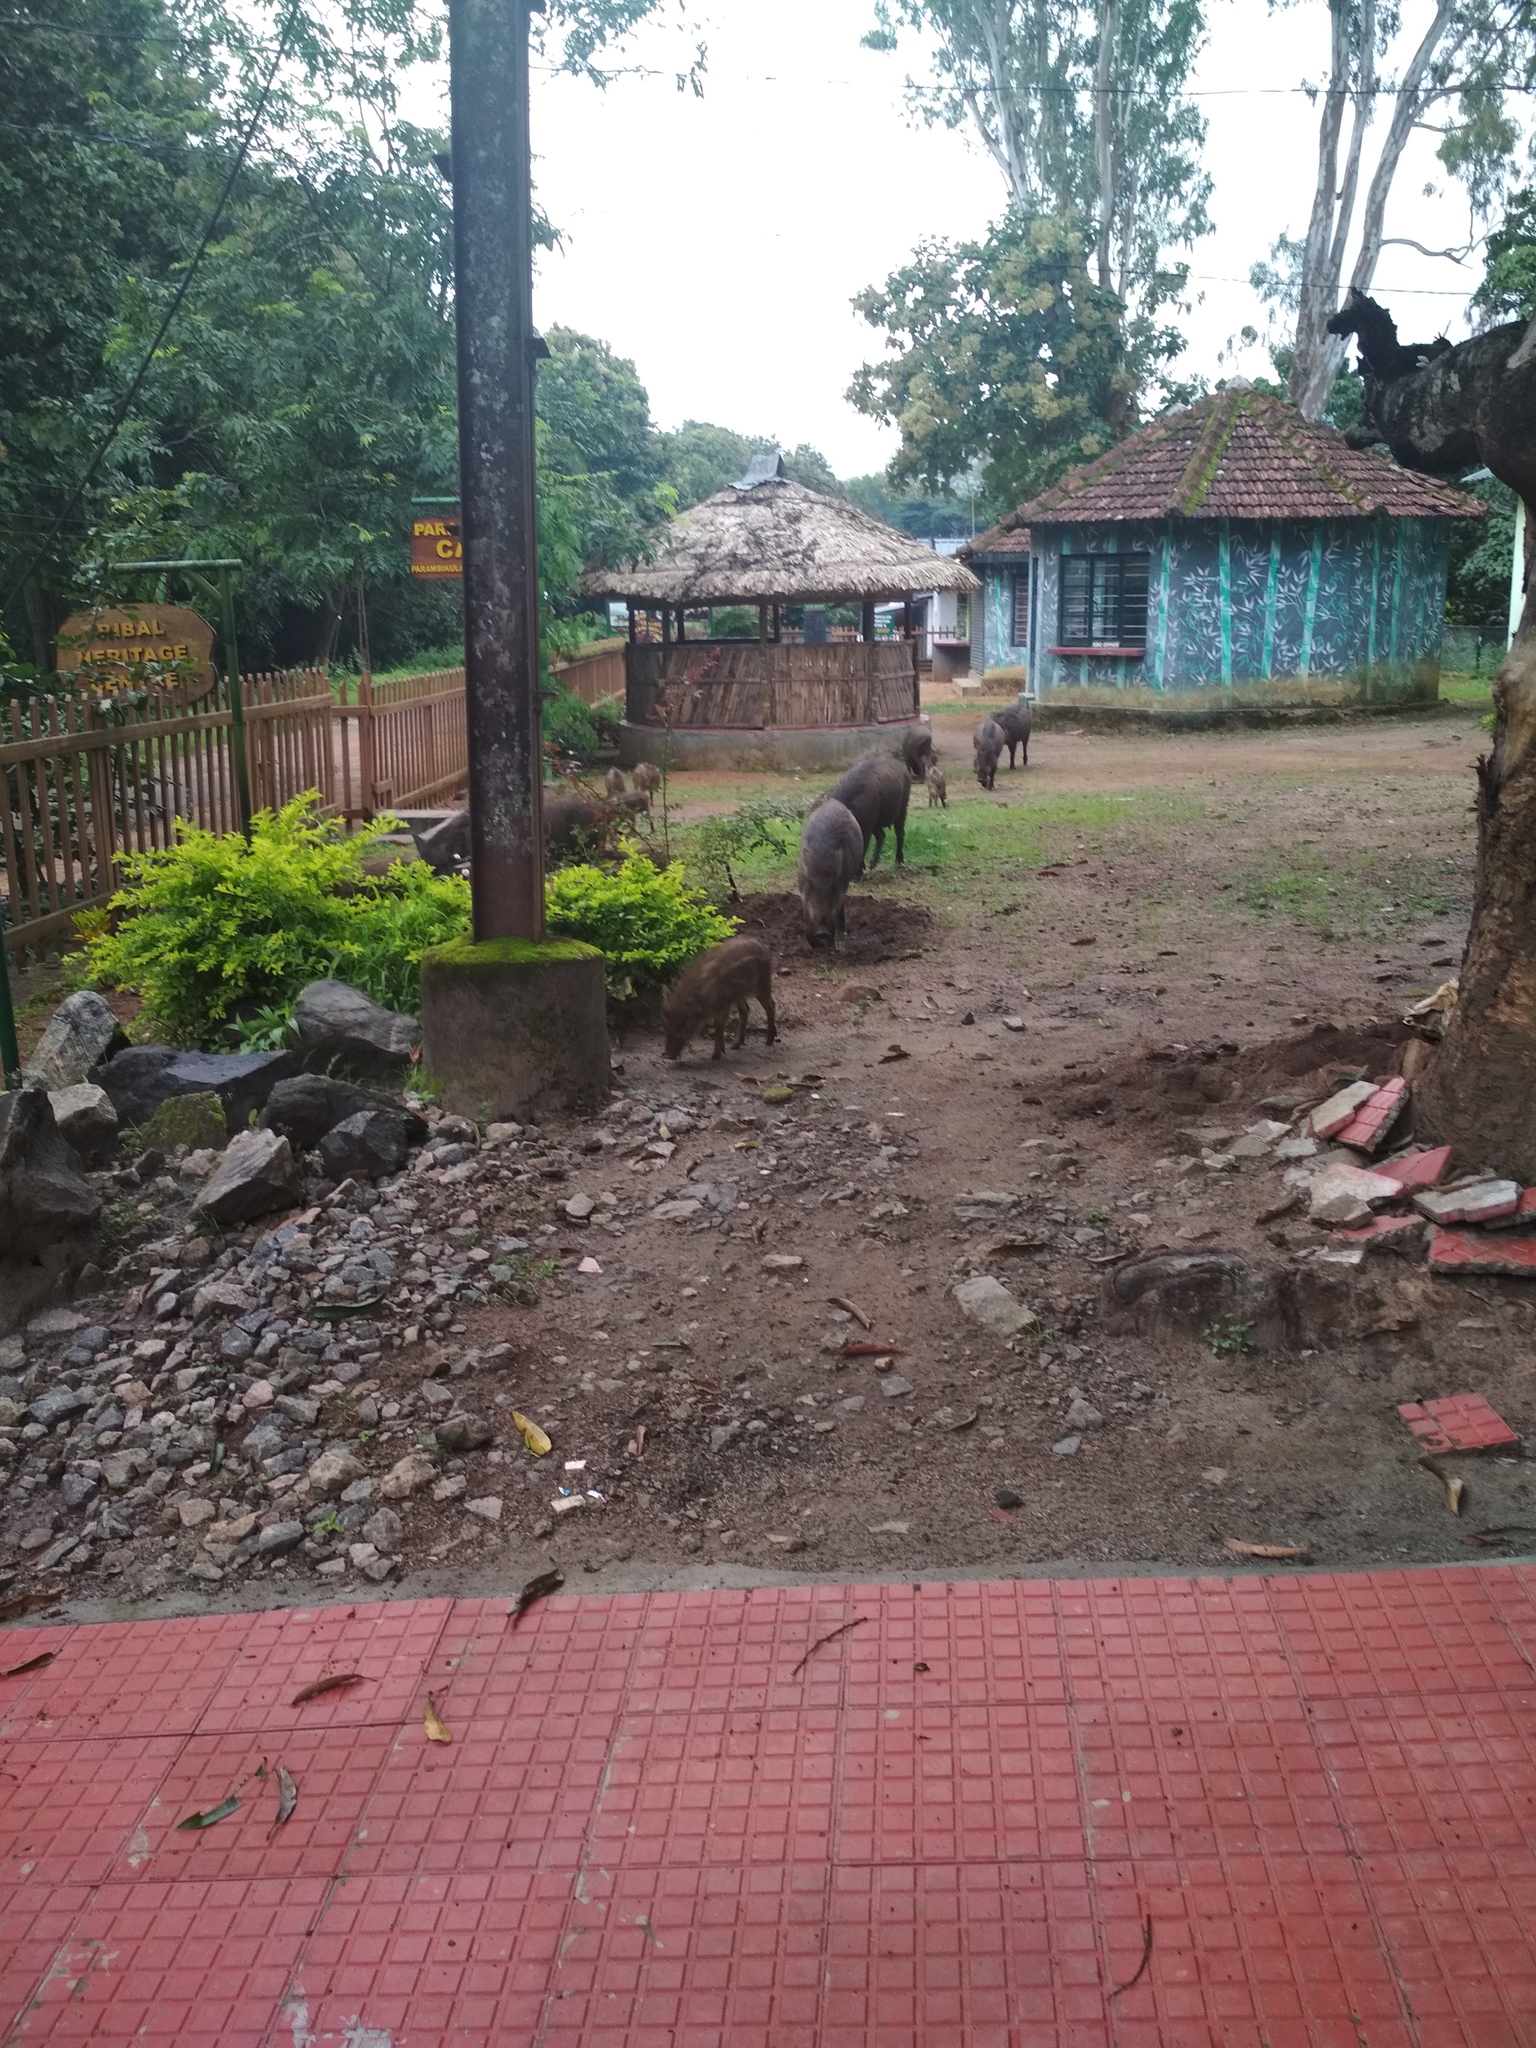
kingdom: Animalia
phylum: Chordata
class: Mammalia
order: Artiodactyla
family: Suidae
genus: Sus
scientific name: Sus scrofa
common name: Wild boar
